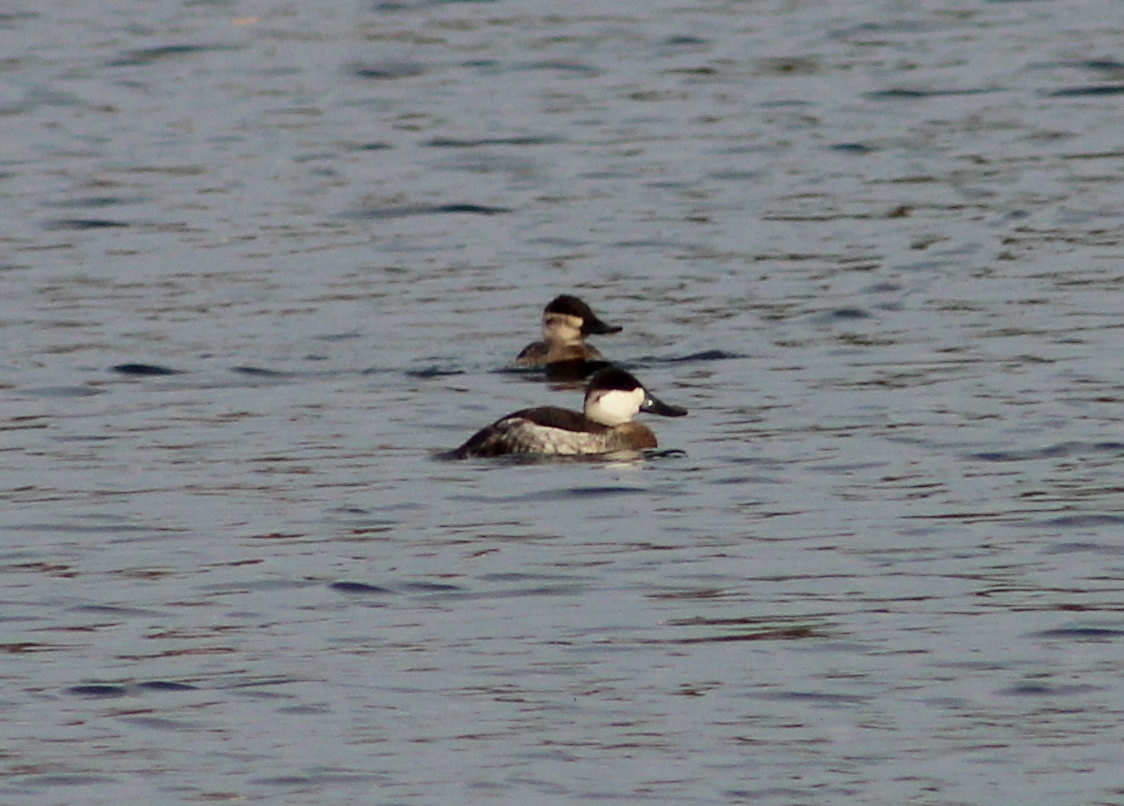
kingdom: Animalia
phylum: Chordata
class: Aves
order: Anseriformes
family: Anatidae
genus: Oxyura
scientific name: Oxyura jamaicensis
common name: Ruddy duck
